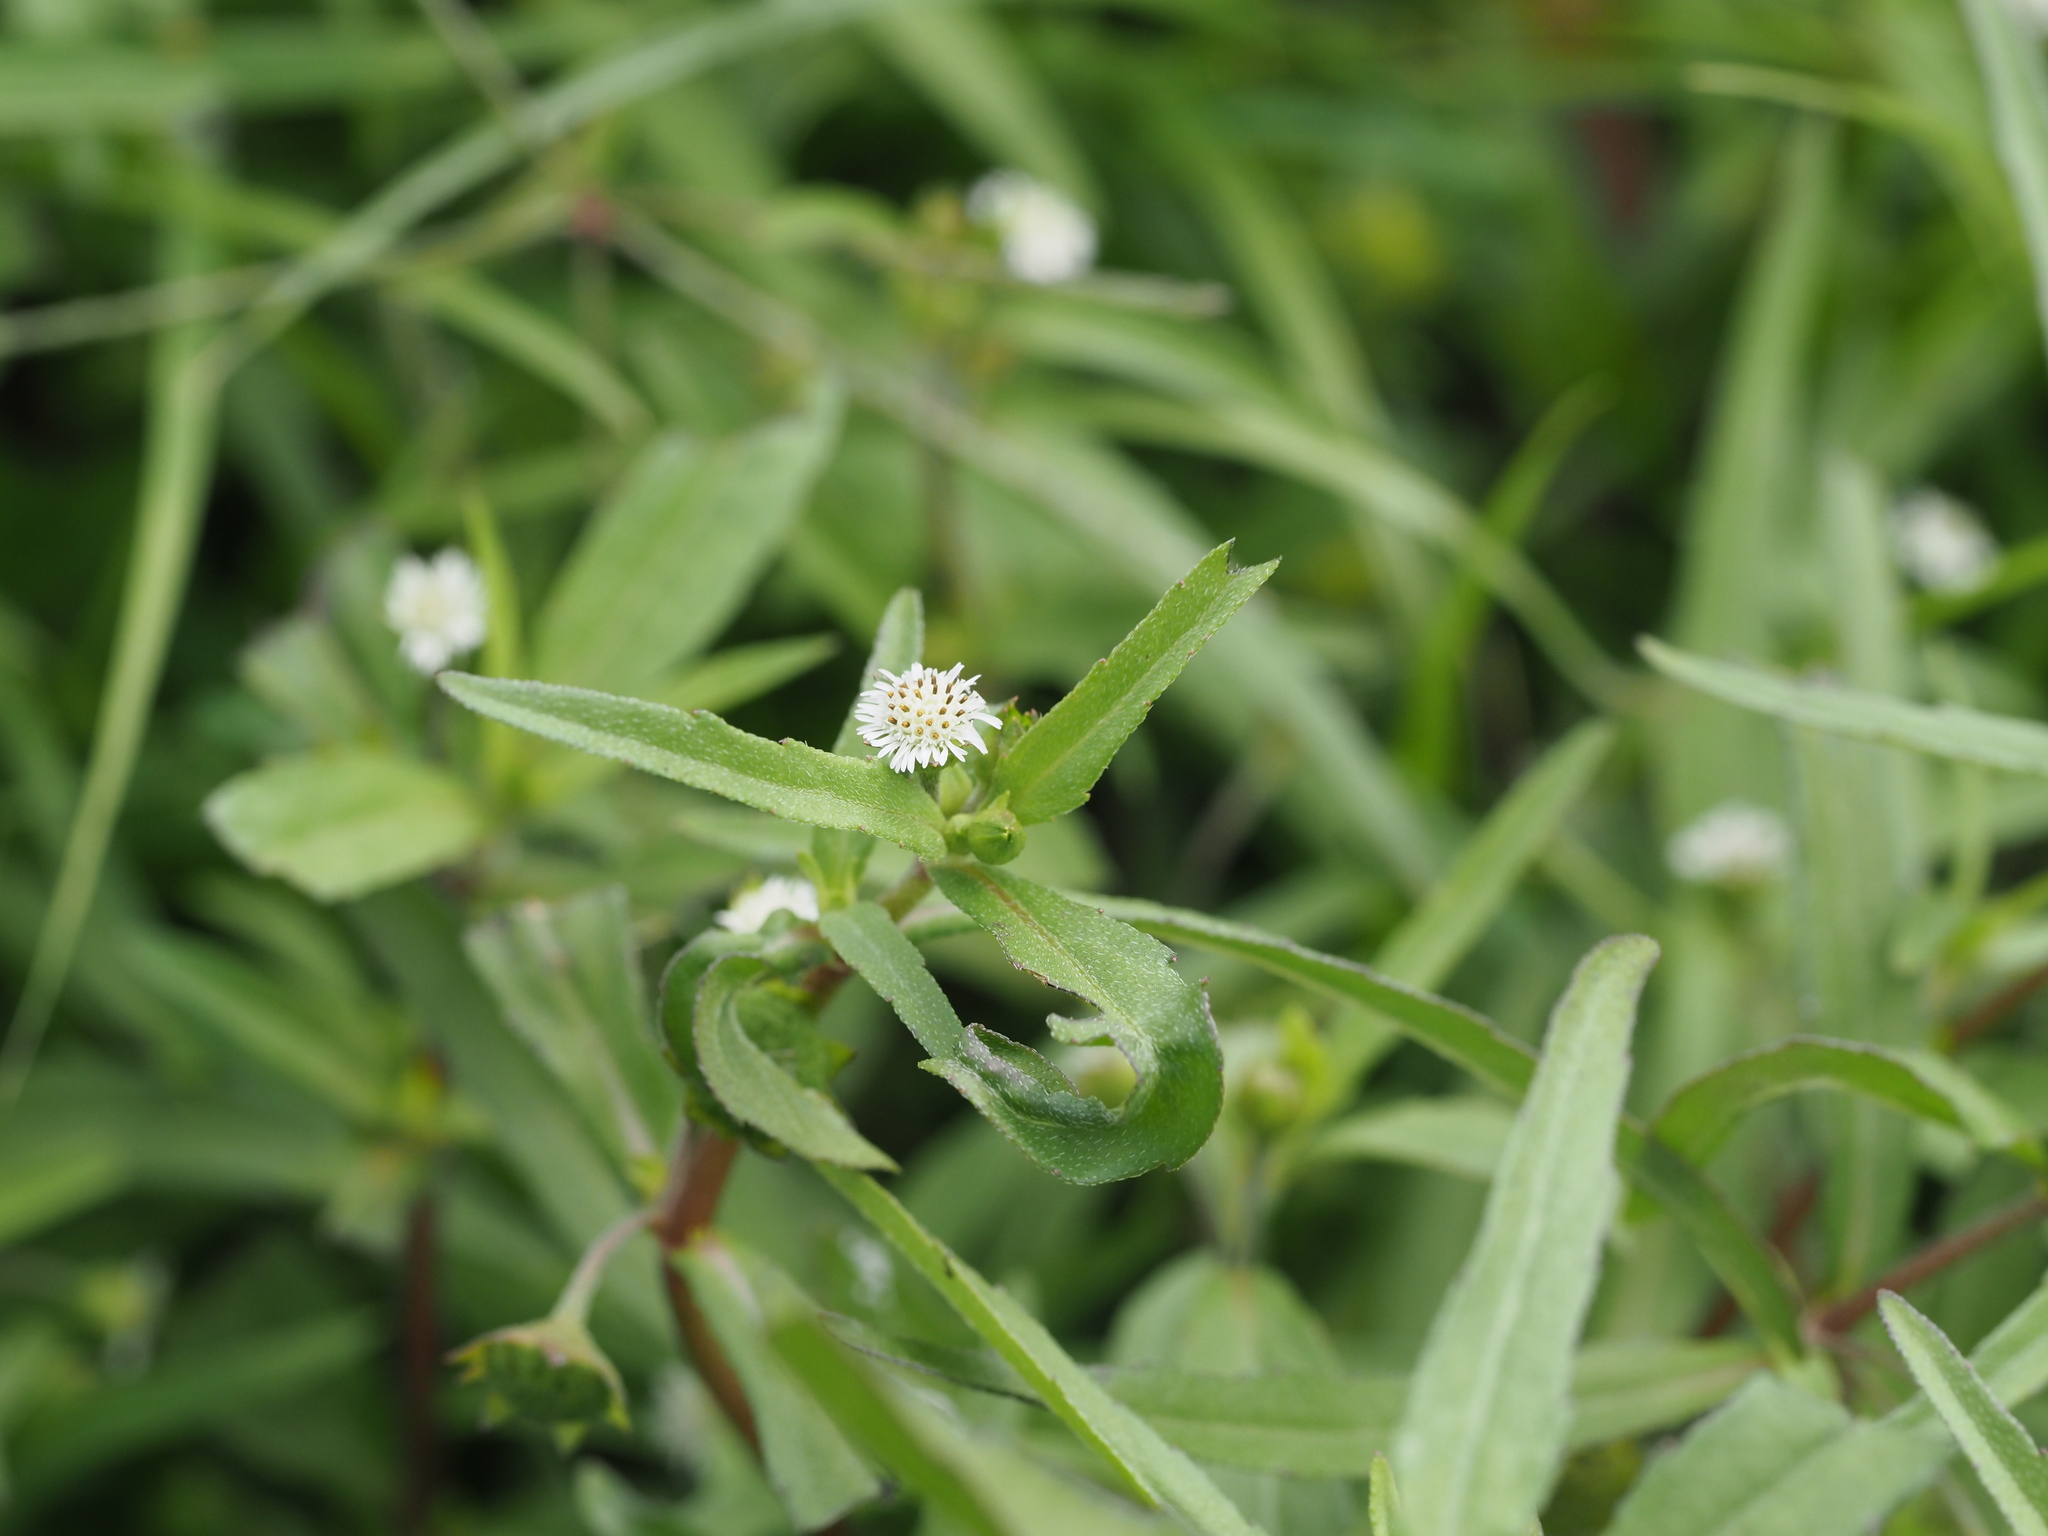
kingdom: Plantae
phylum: Tracheophyta
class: Magnoliopsida
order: Asterales
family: Asteraceae
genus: Eclipta
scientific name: Eclipta prostrata
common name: False daisy
